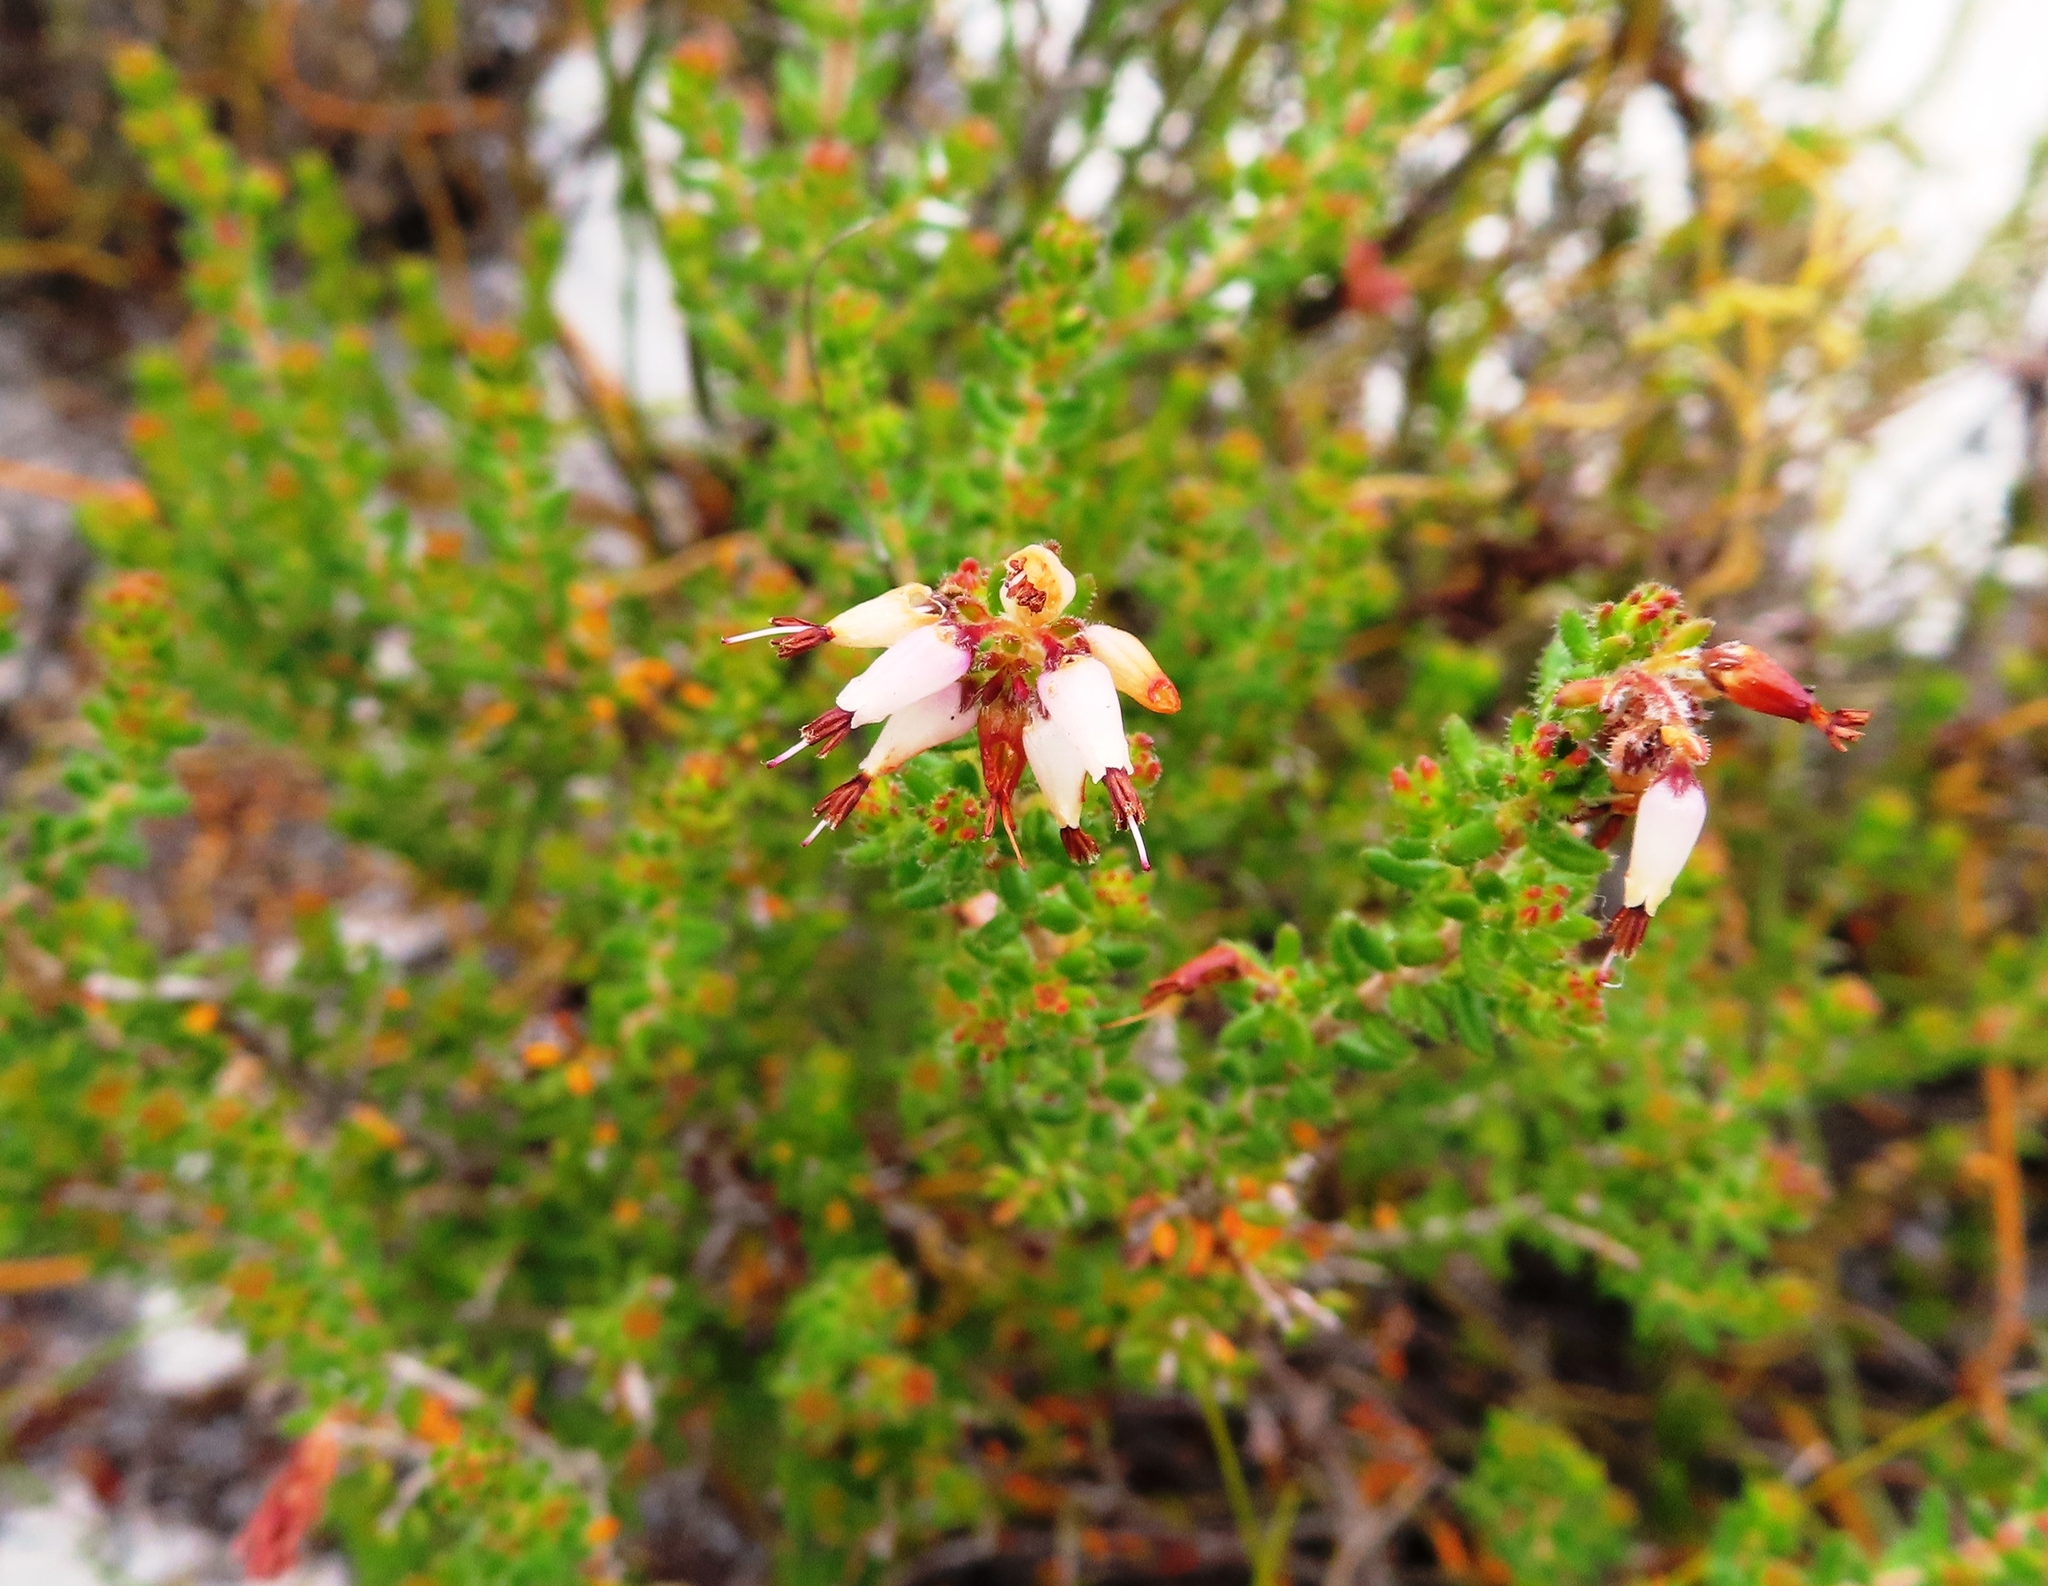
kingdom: Plantae
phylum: Tracheophyta
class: Magnoliopsida
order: Ericales
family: Ericaceae
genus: Erica
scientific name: Erica interrupta
